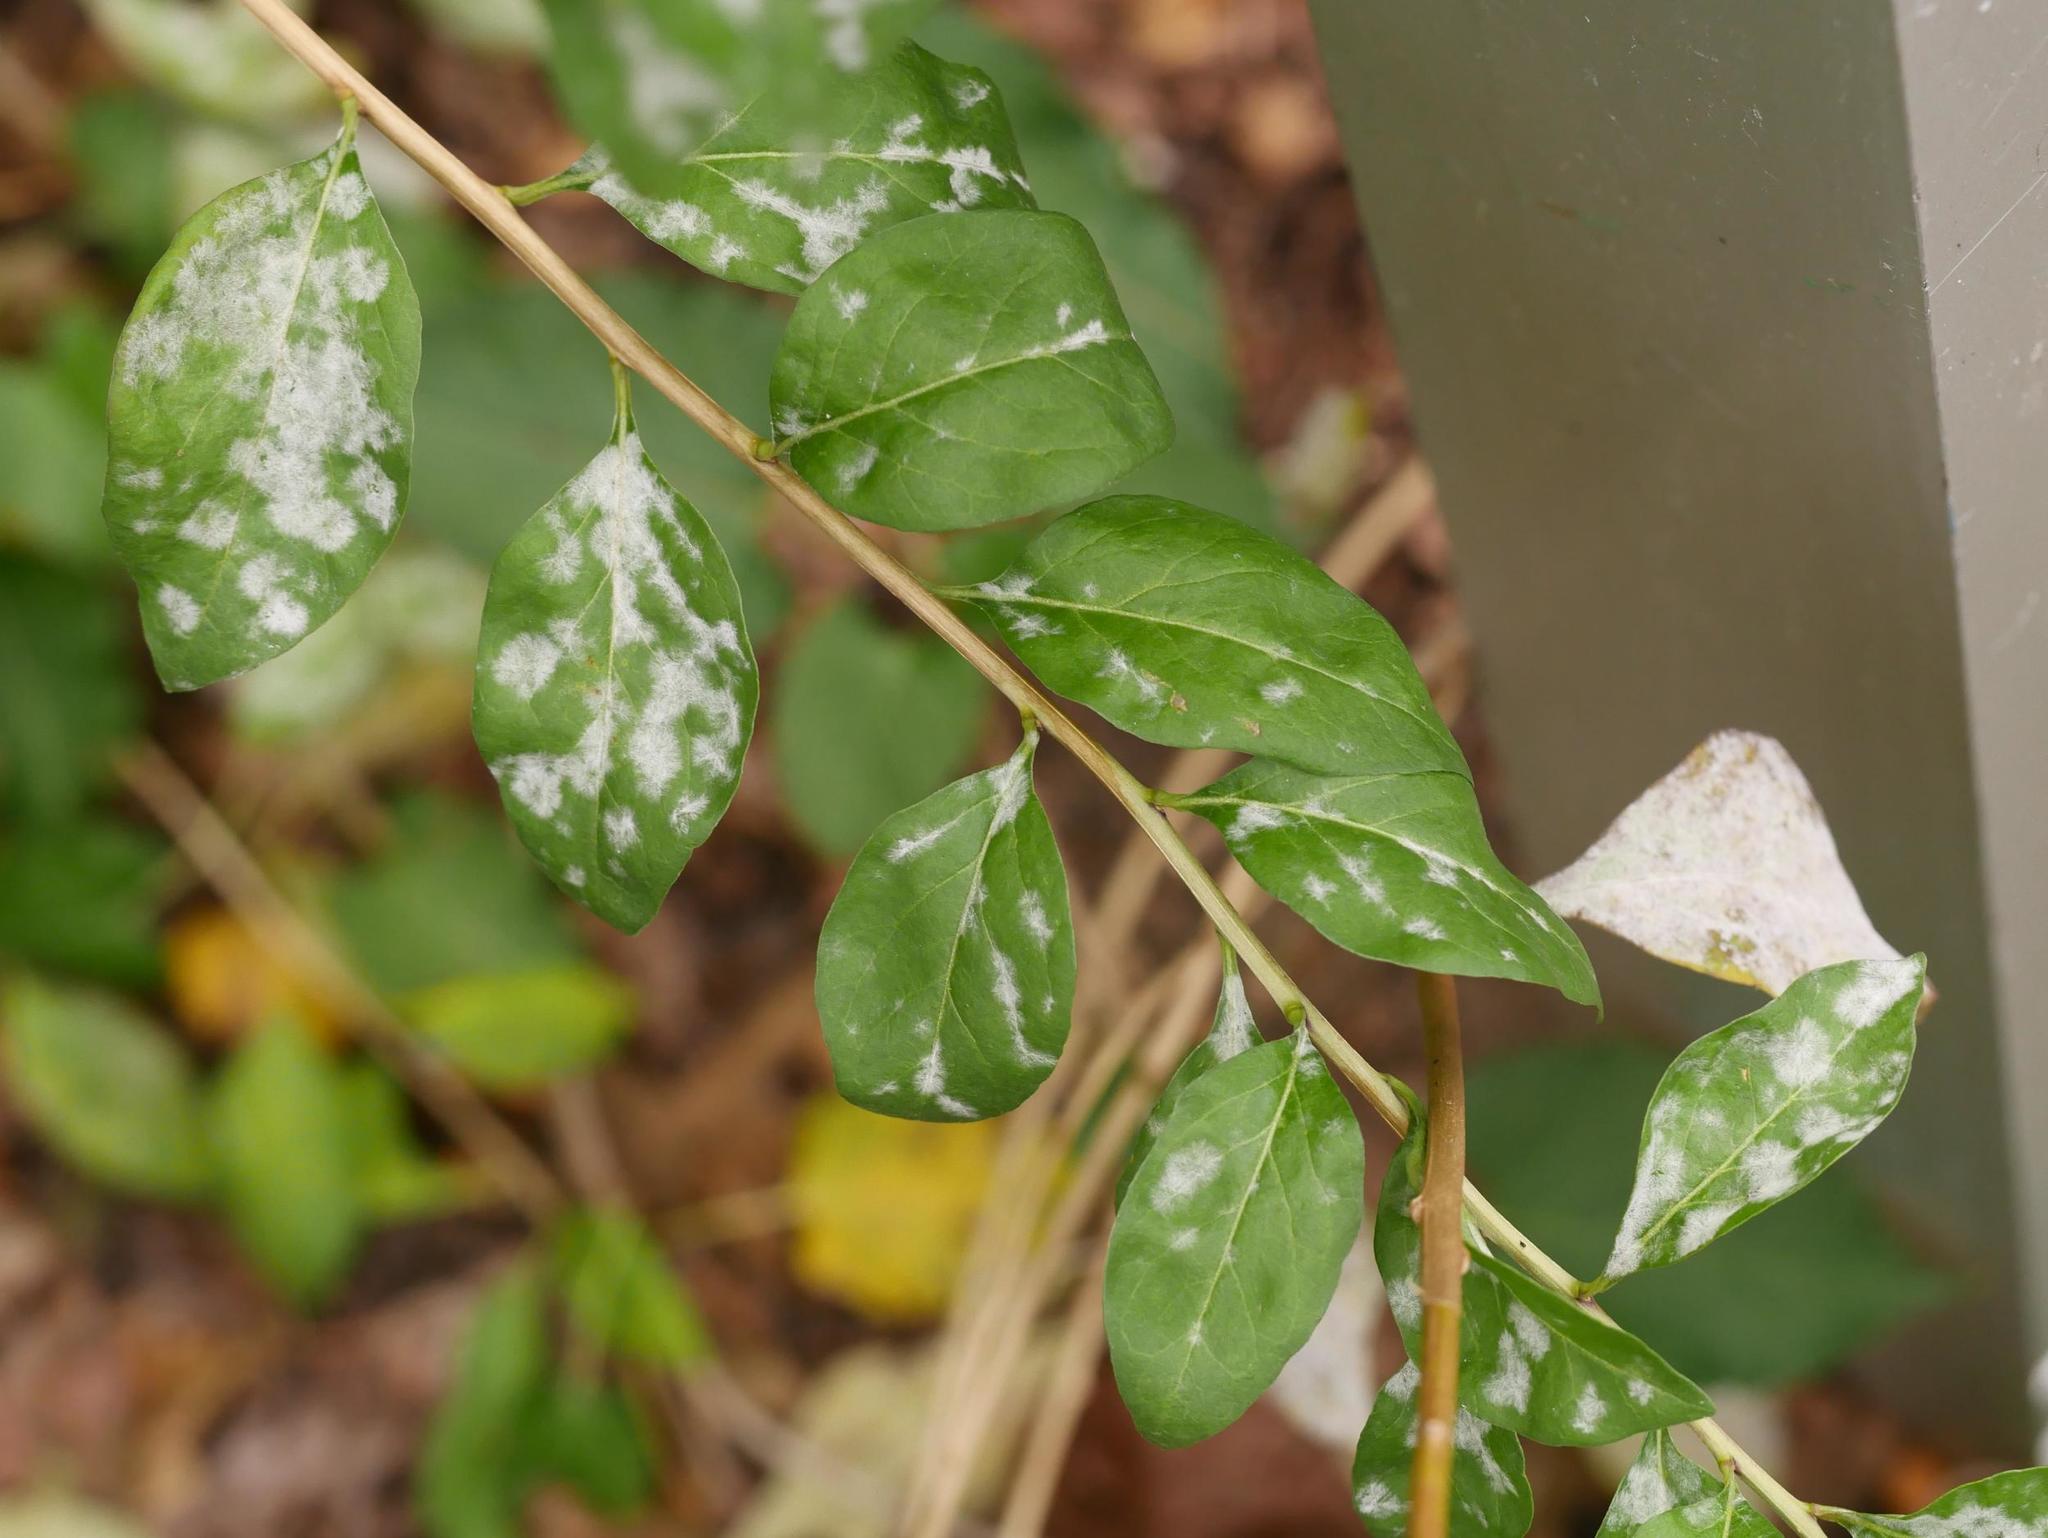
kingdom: Fungi
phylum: Ascomycota
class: Leotiomycetes
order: Helotiales
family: Erysiphaceae
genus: Erysiphe
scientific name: Erysiphe mougeotii
